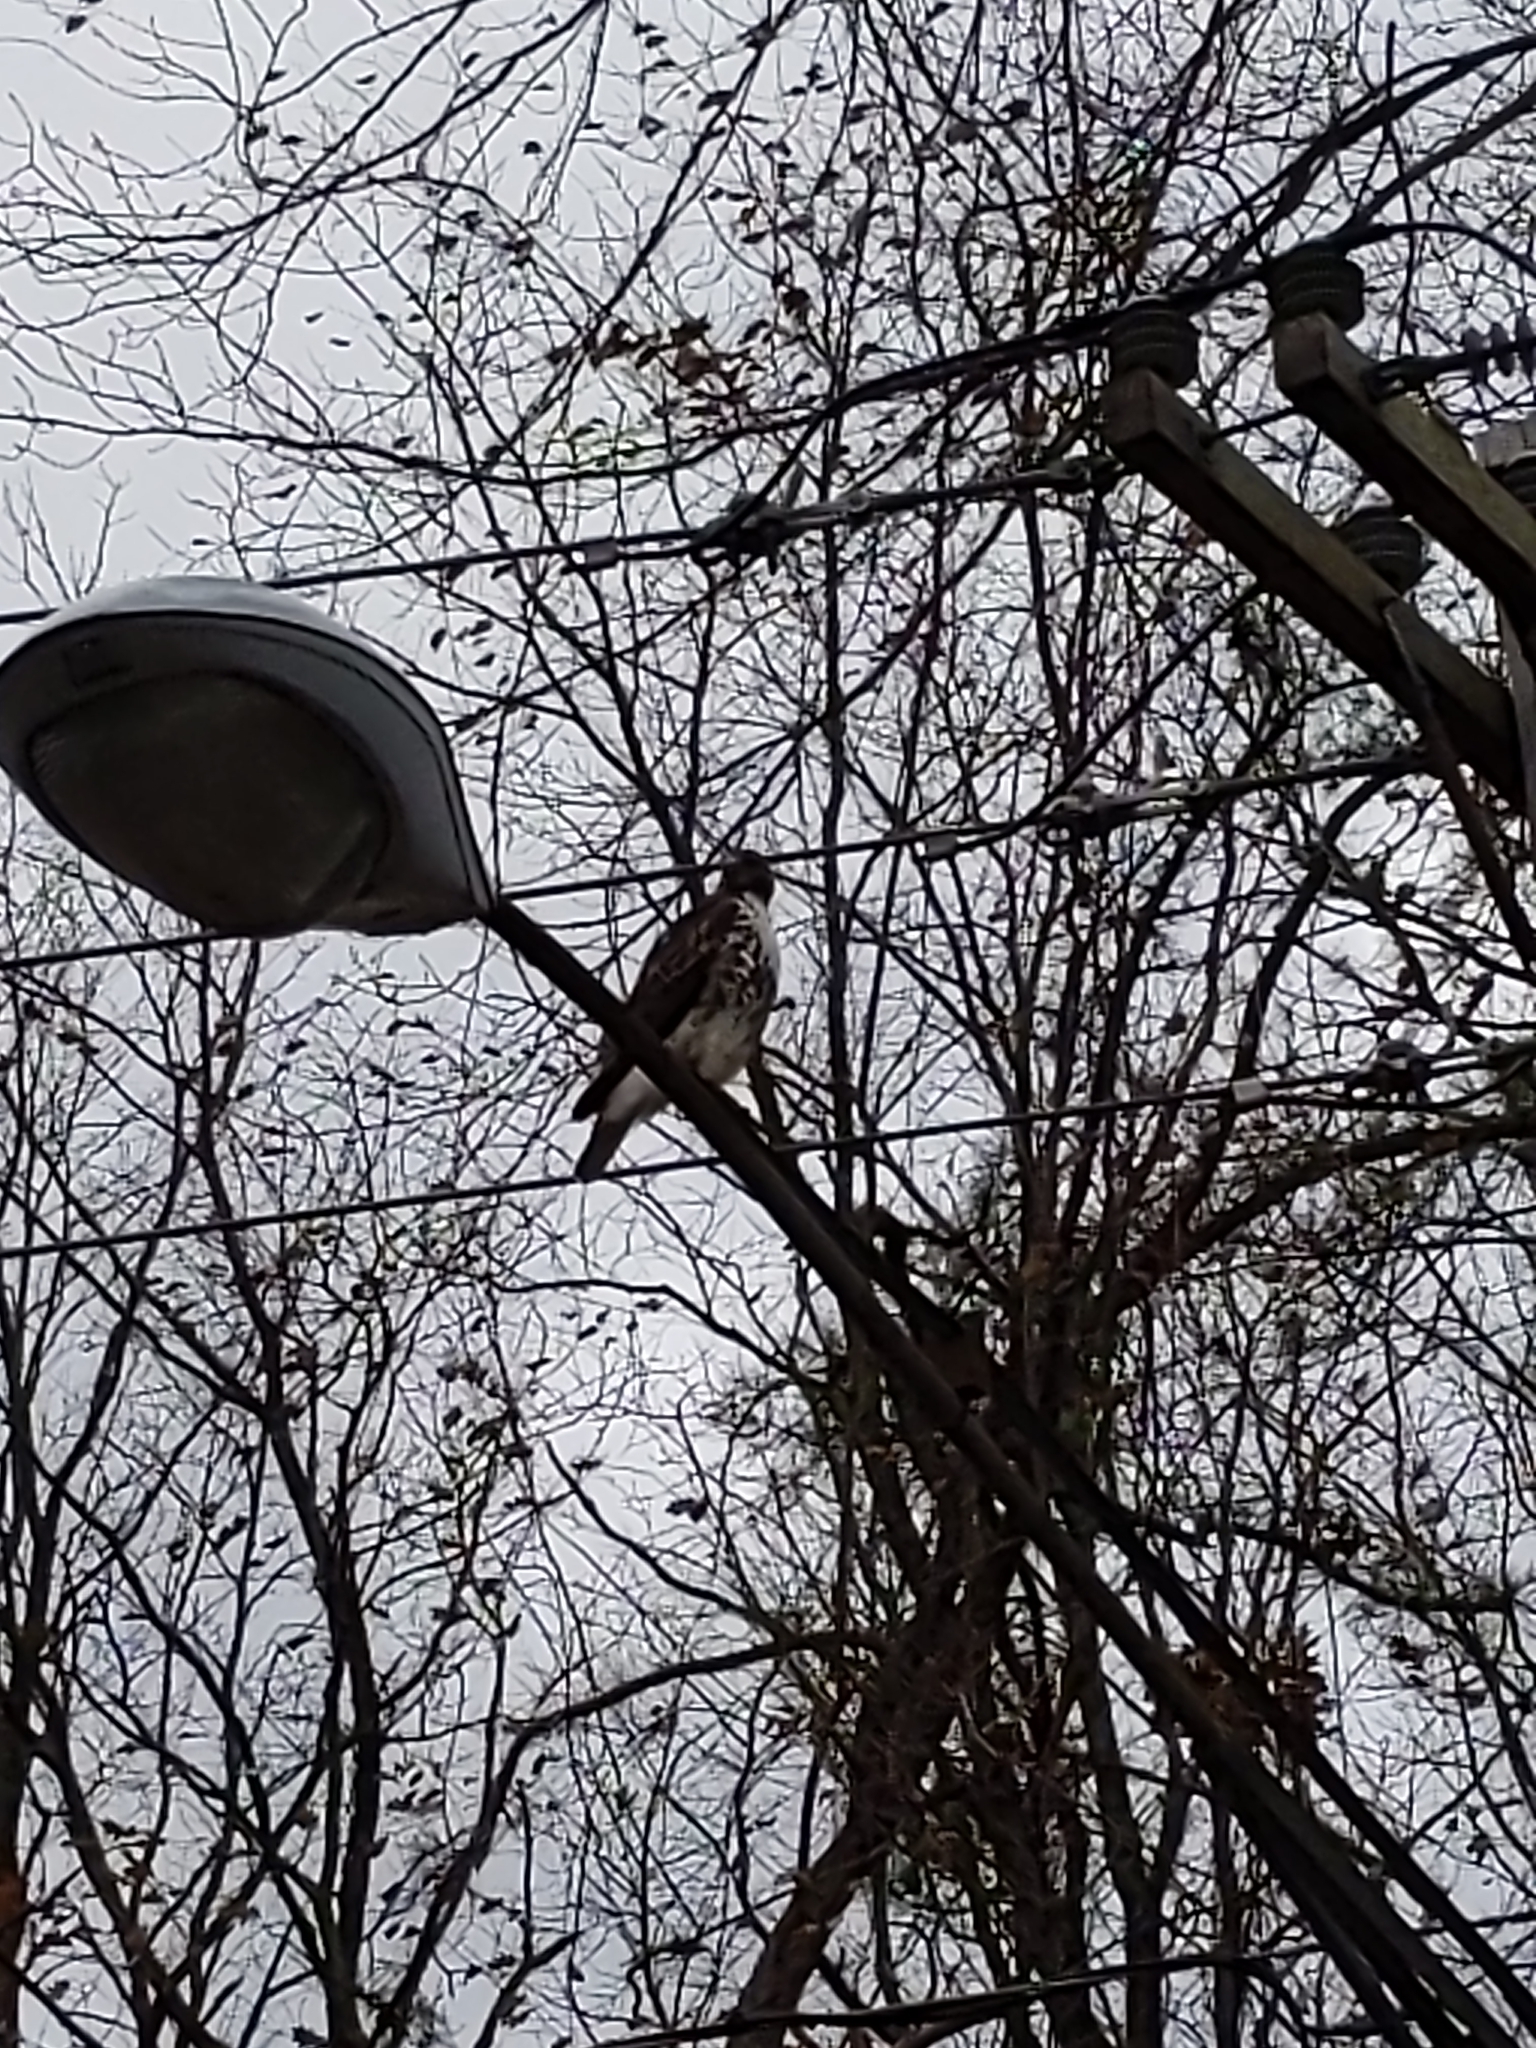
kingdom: Animalia
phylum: Chordata
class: Aves
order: Accipitriformes
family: Accipitridae
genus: Buteo
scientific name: Buteo jamaicensis
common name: Red-tailed hawk
